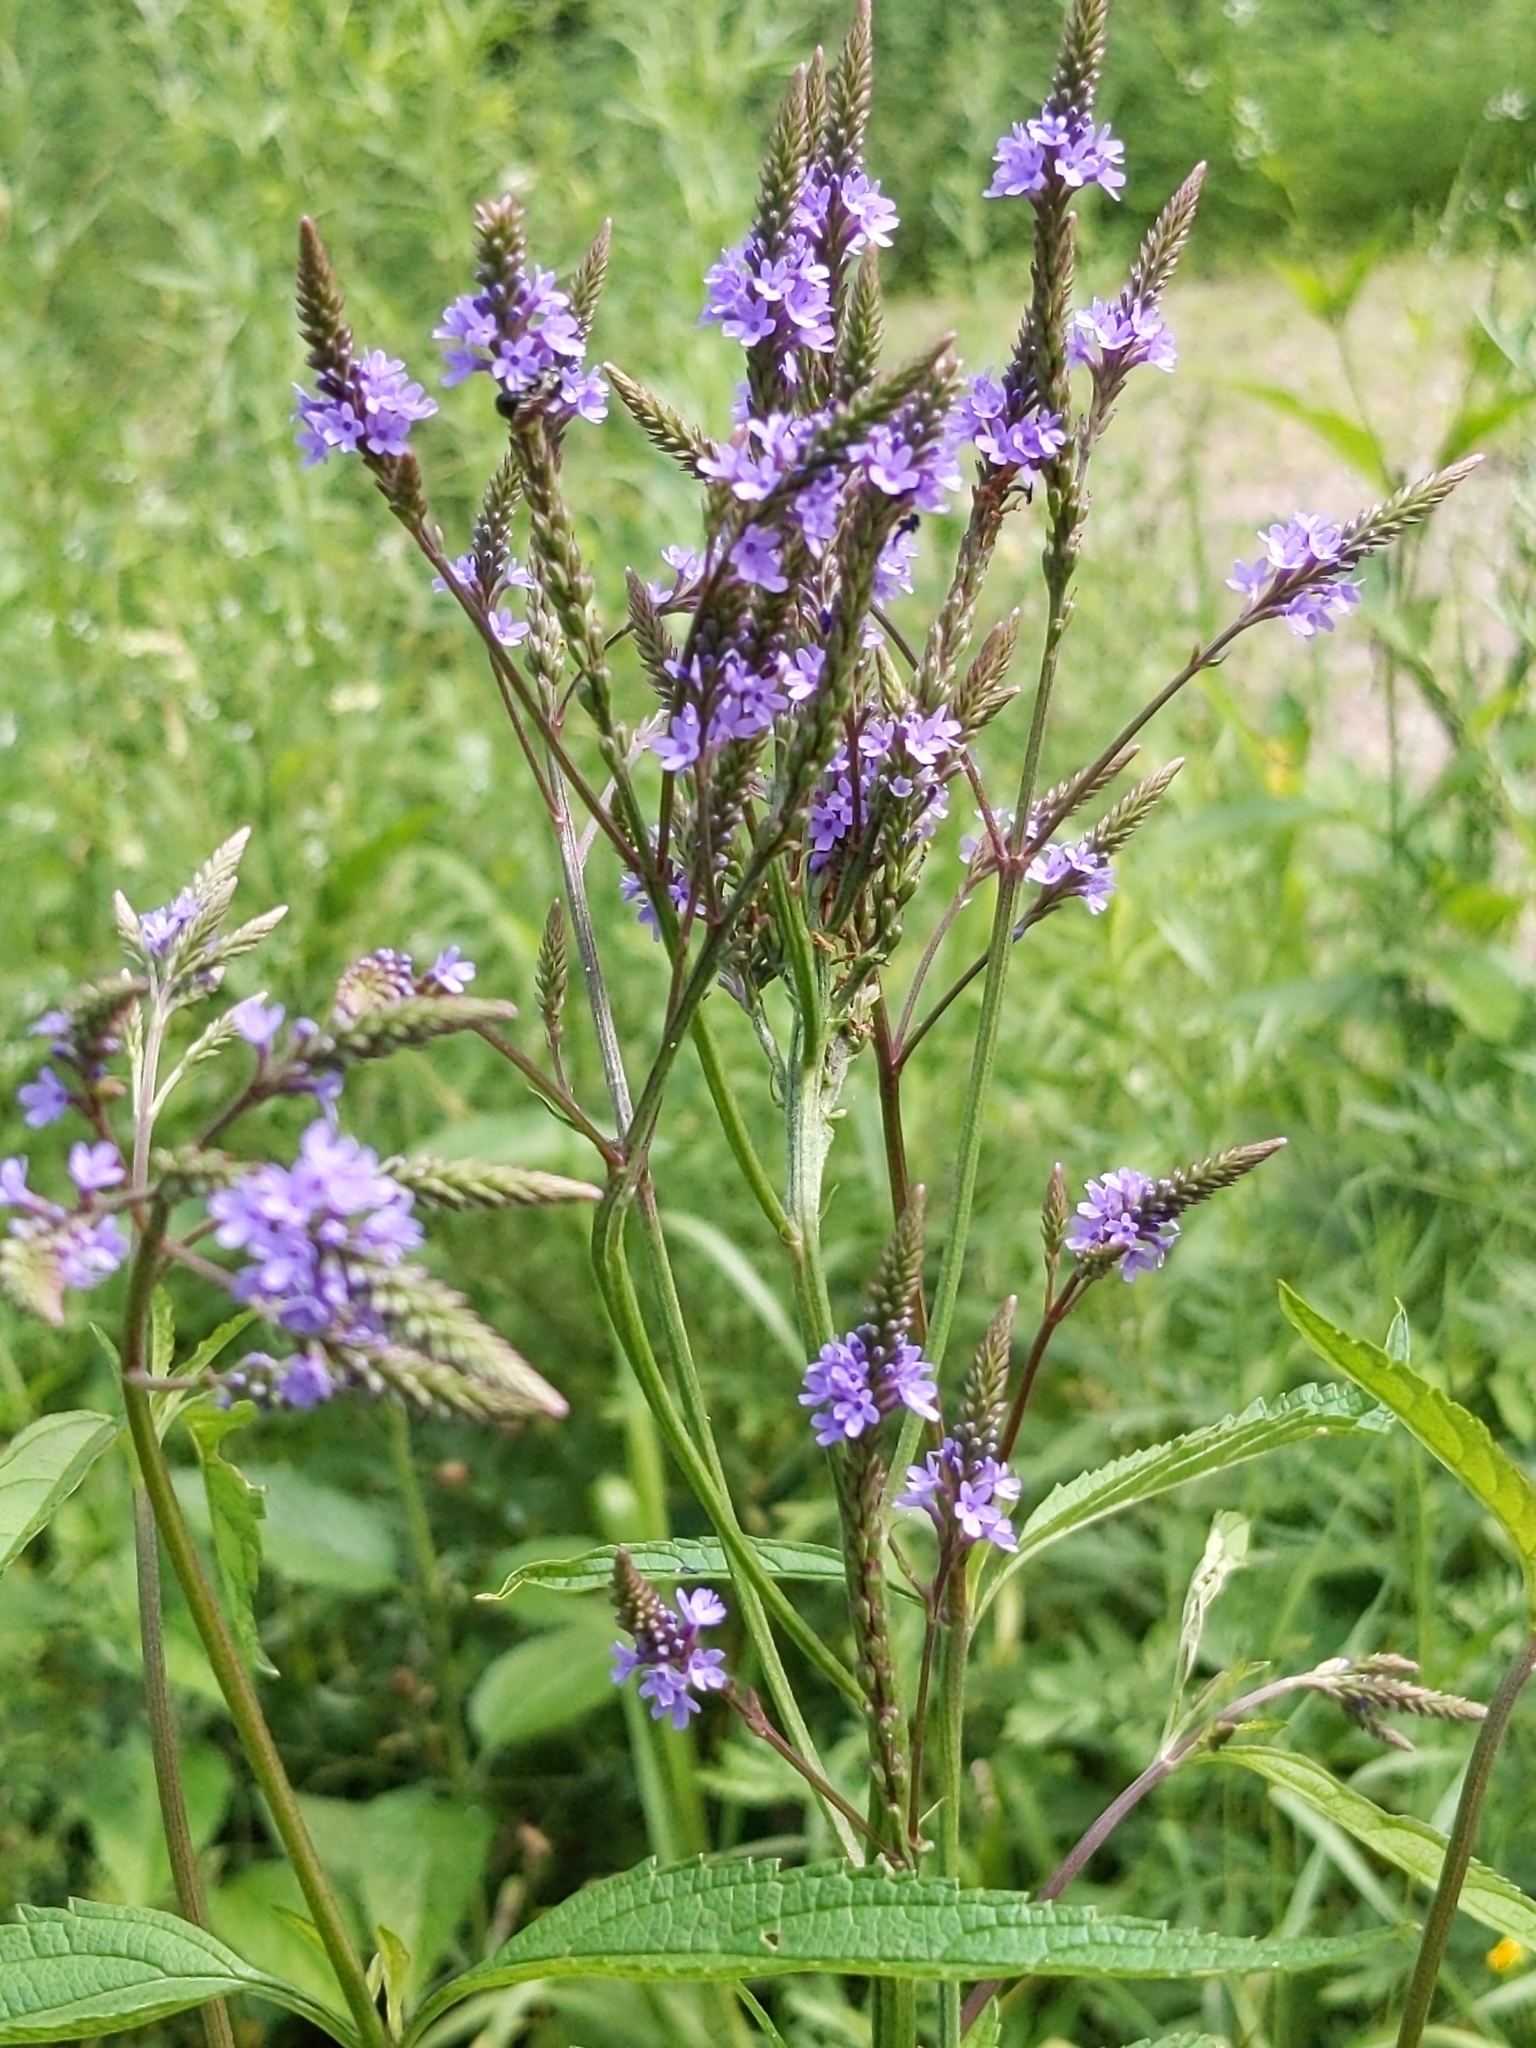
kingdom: Plantae
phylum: Tracheophyta
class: Magnoliopsida
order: Lamiales
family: Verbenaceae
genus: Verbena
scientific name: Verbena hastata
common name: American blue vervain
